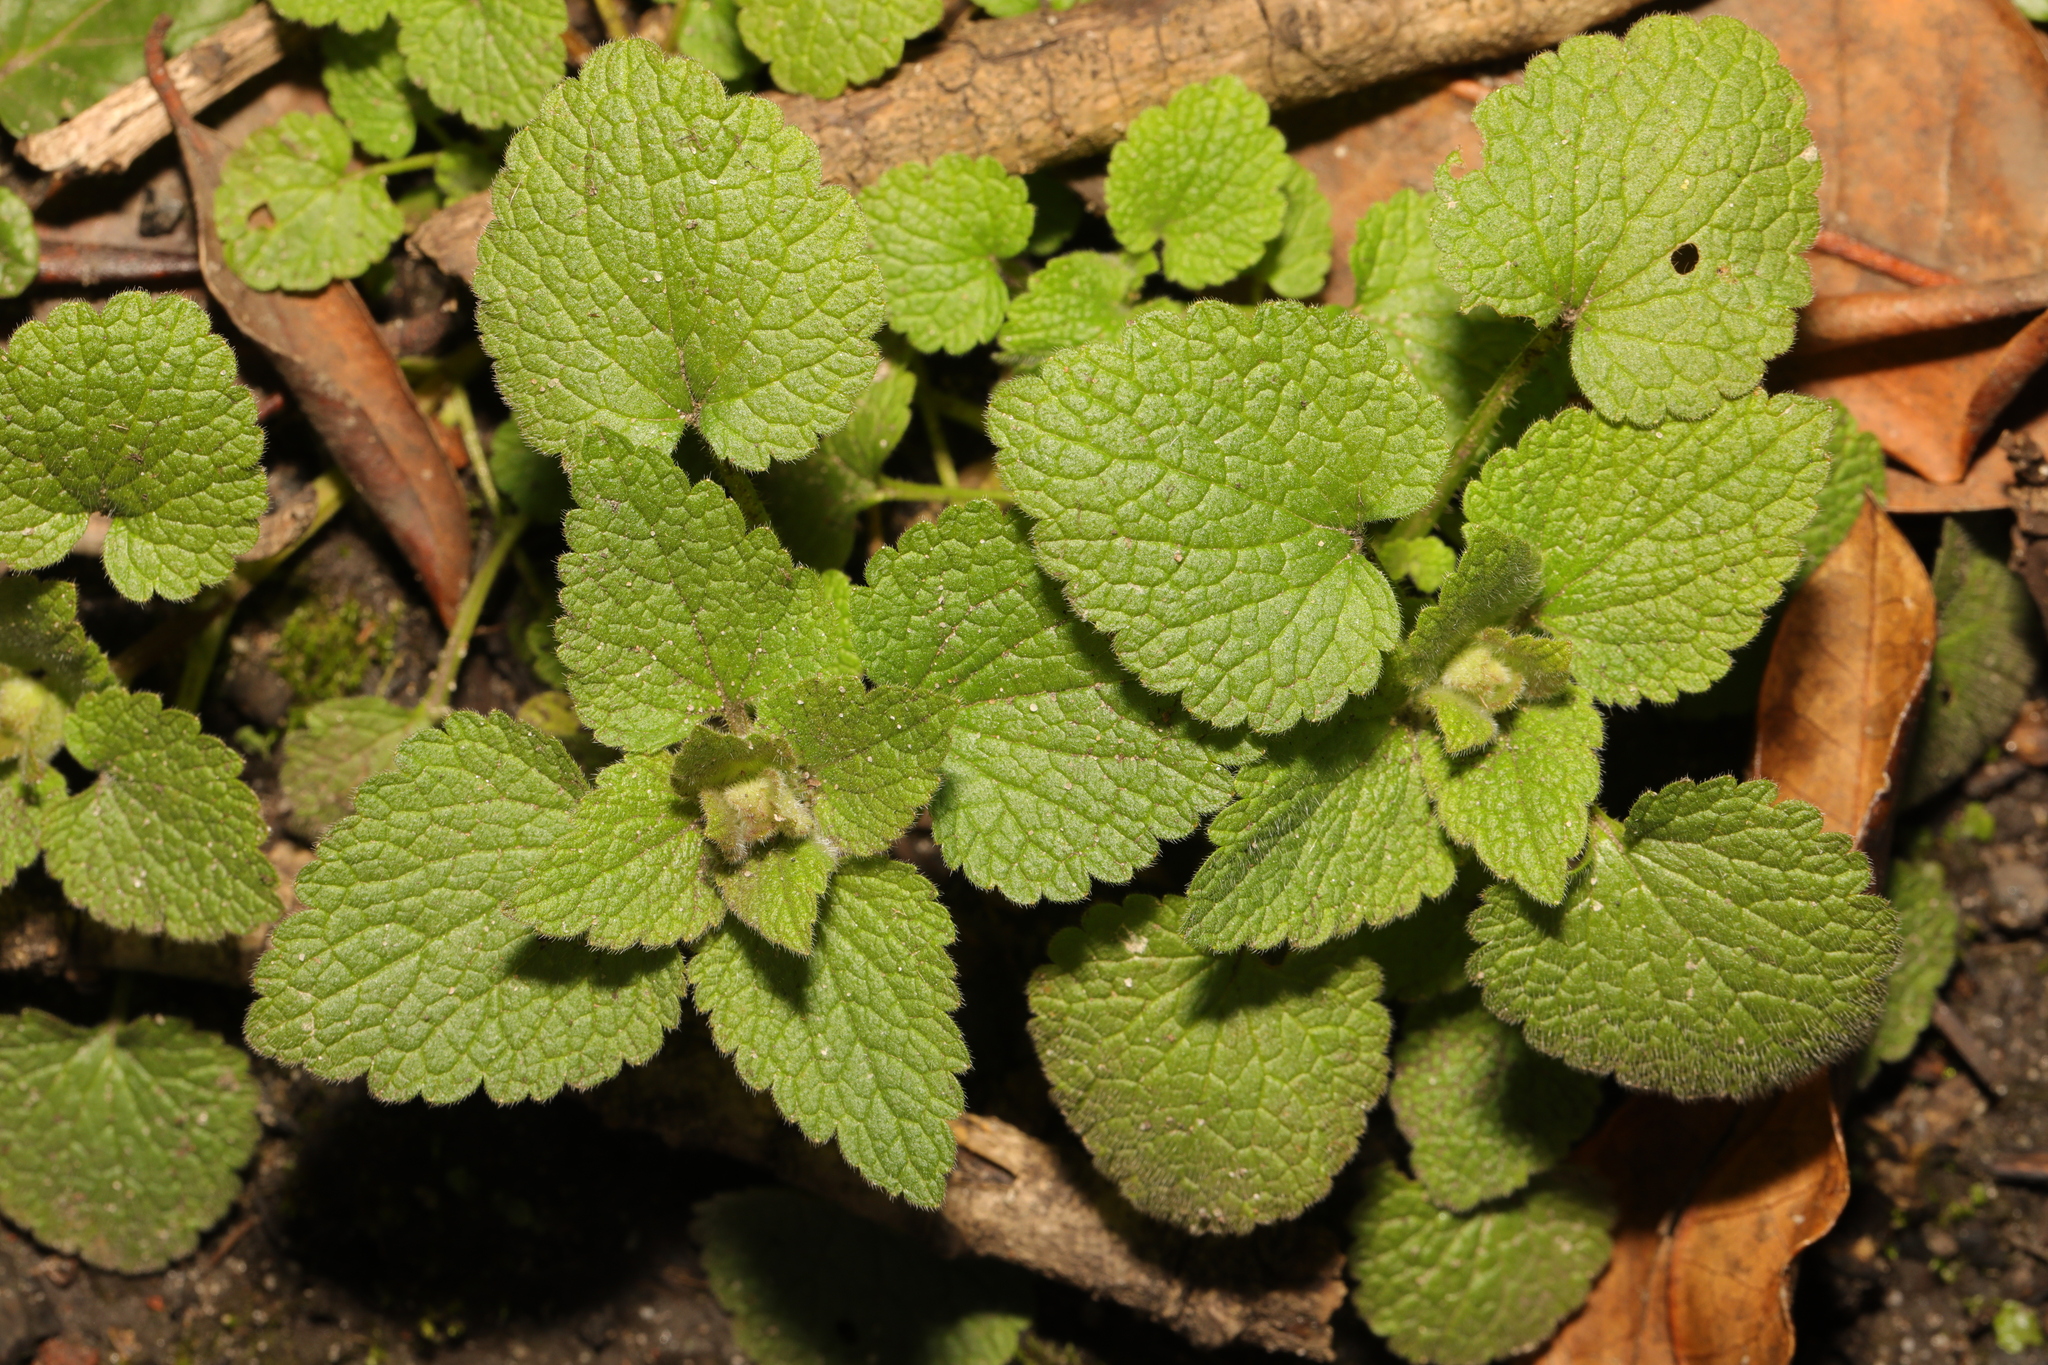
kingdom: Plantae
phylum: Tracheophyta
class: Magnoliopsida
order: Lamiales
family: Lamiaceae
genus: Lamium
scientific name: Lamium purpureum
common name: Red dead-nettle
